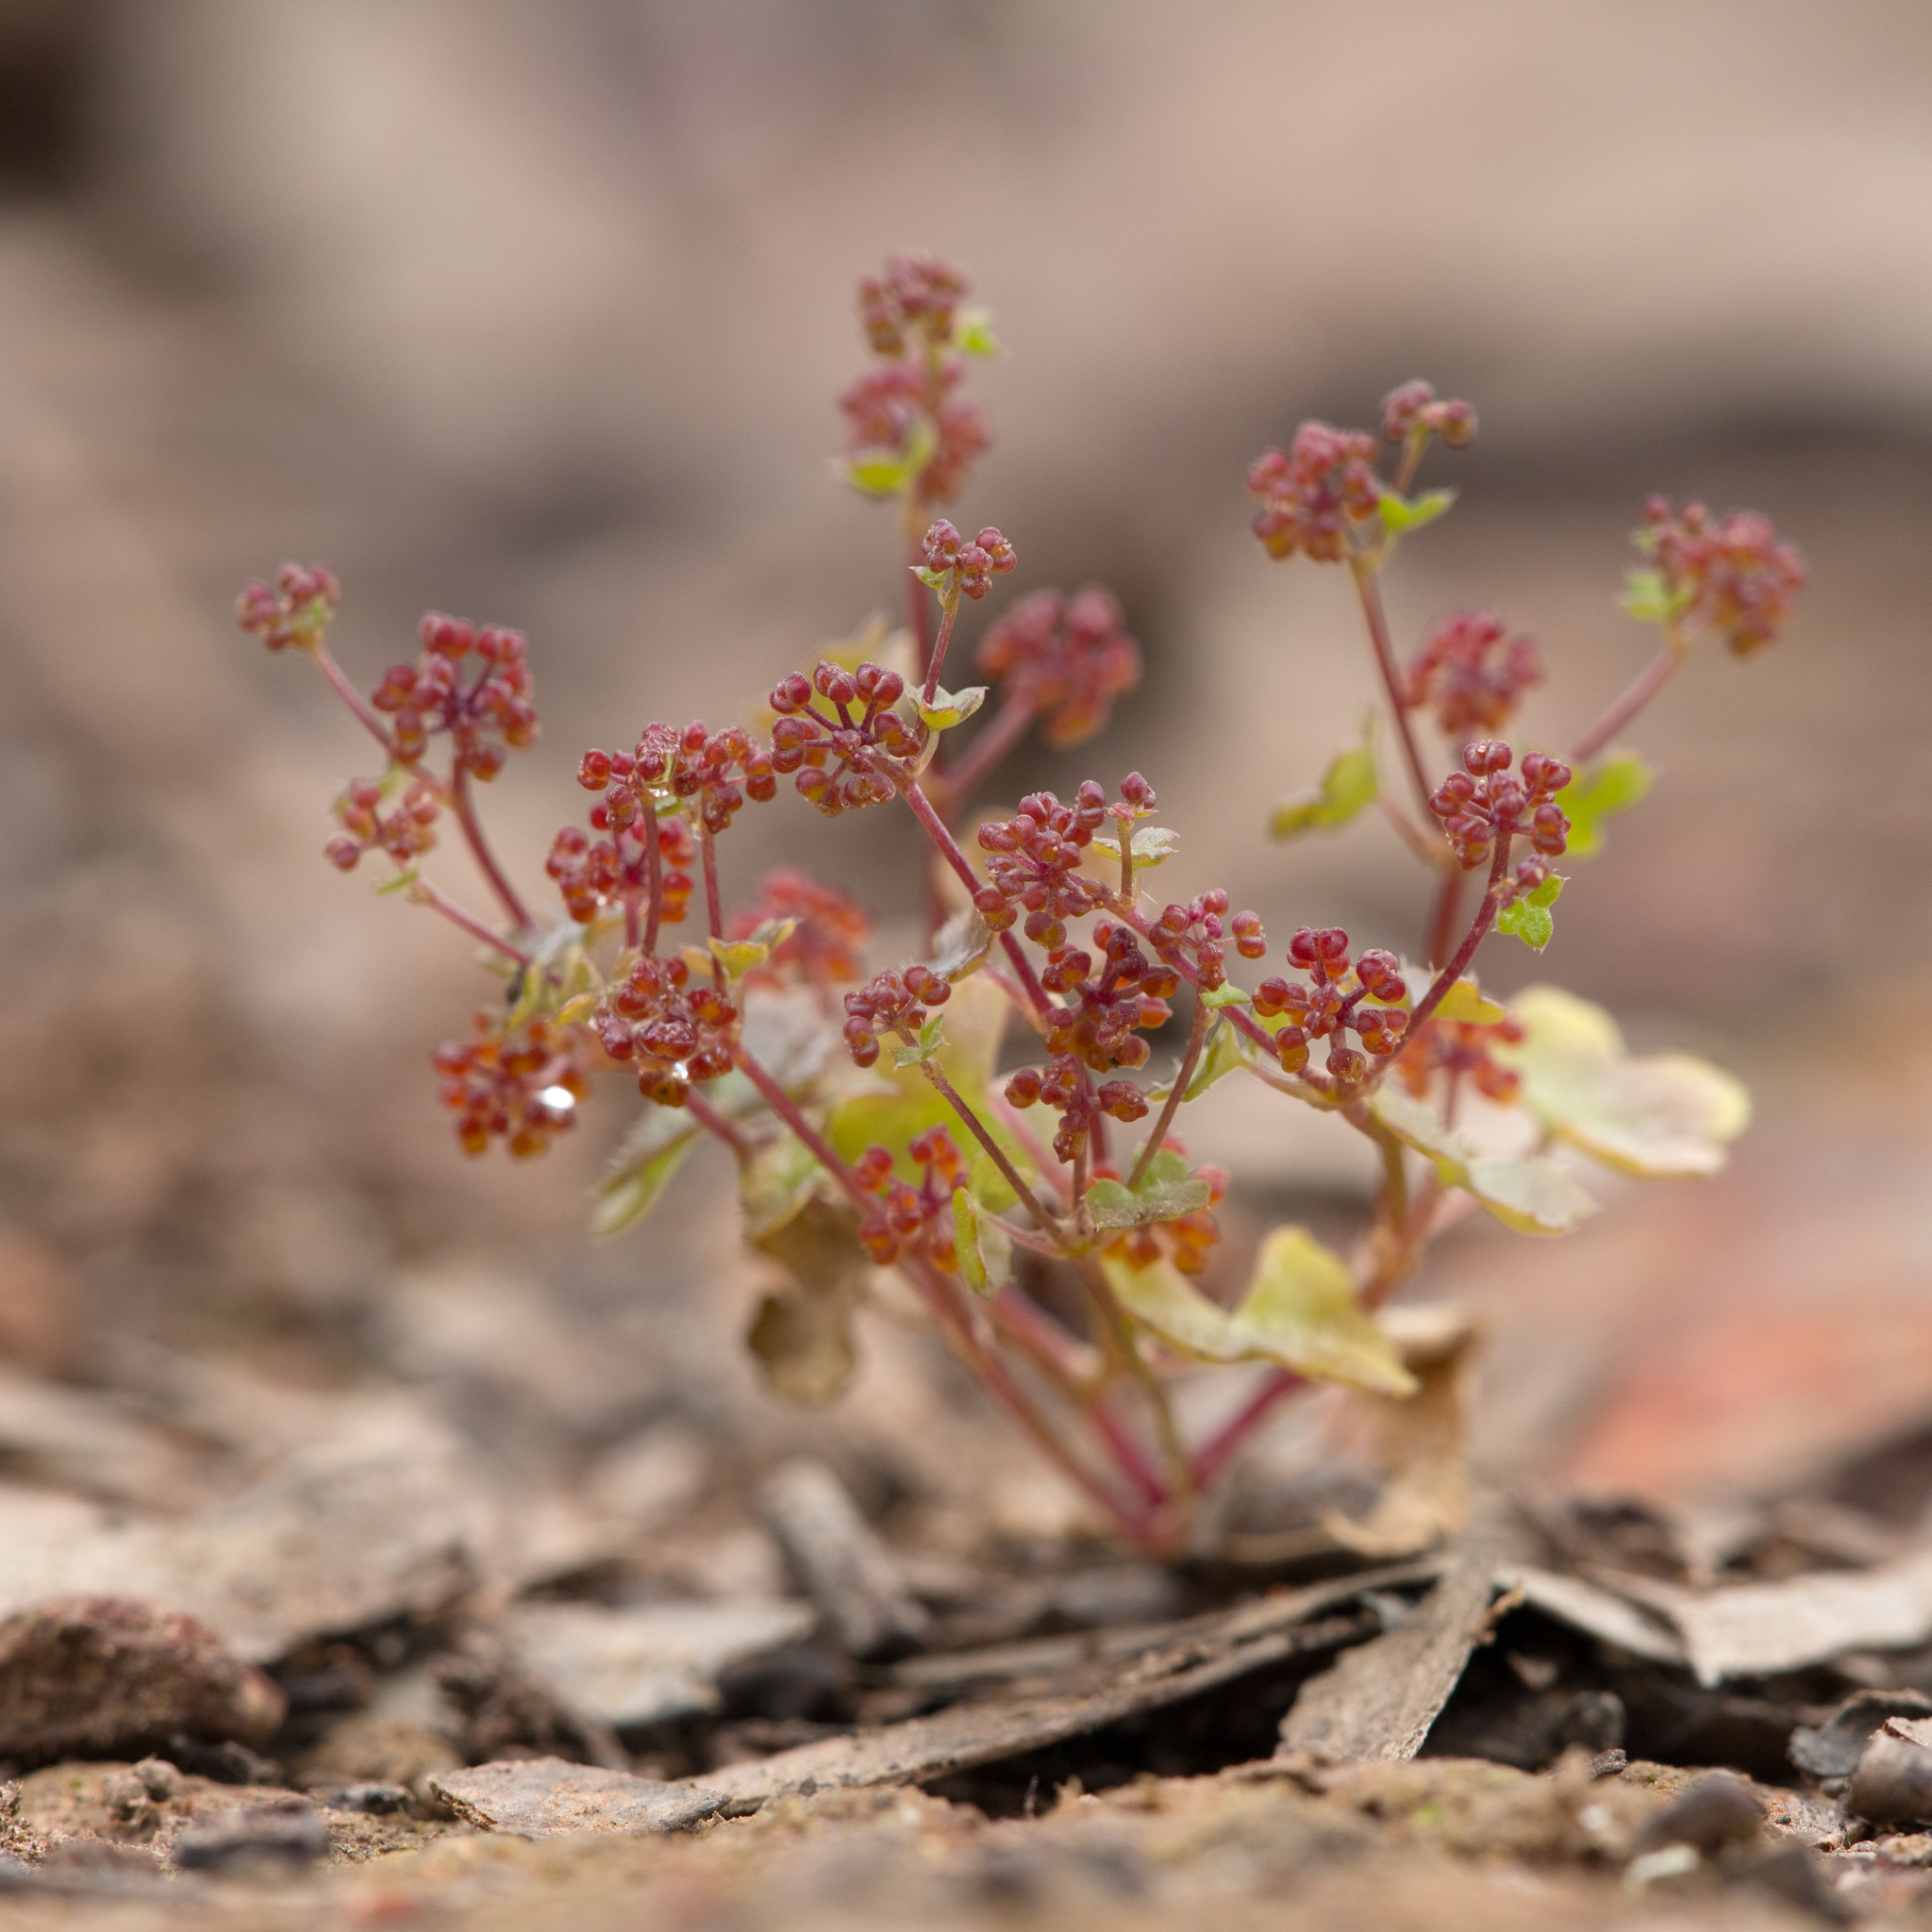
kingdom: Plantae
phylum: Tracheophyta
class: Magnoliopsida
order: Apiales
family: Araliaceae
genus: Hydrocotyle
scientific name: Hydrocotyle callicarpa
